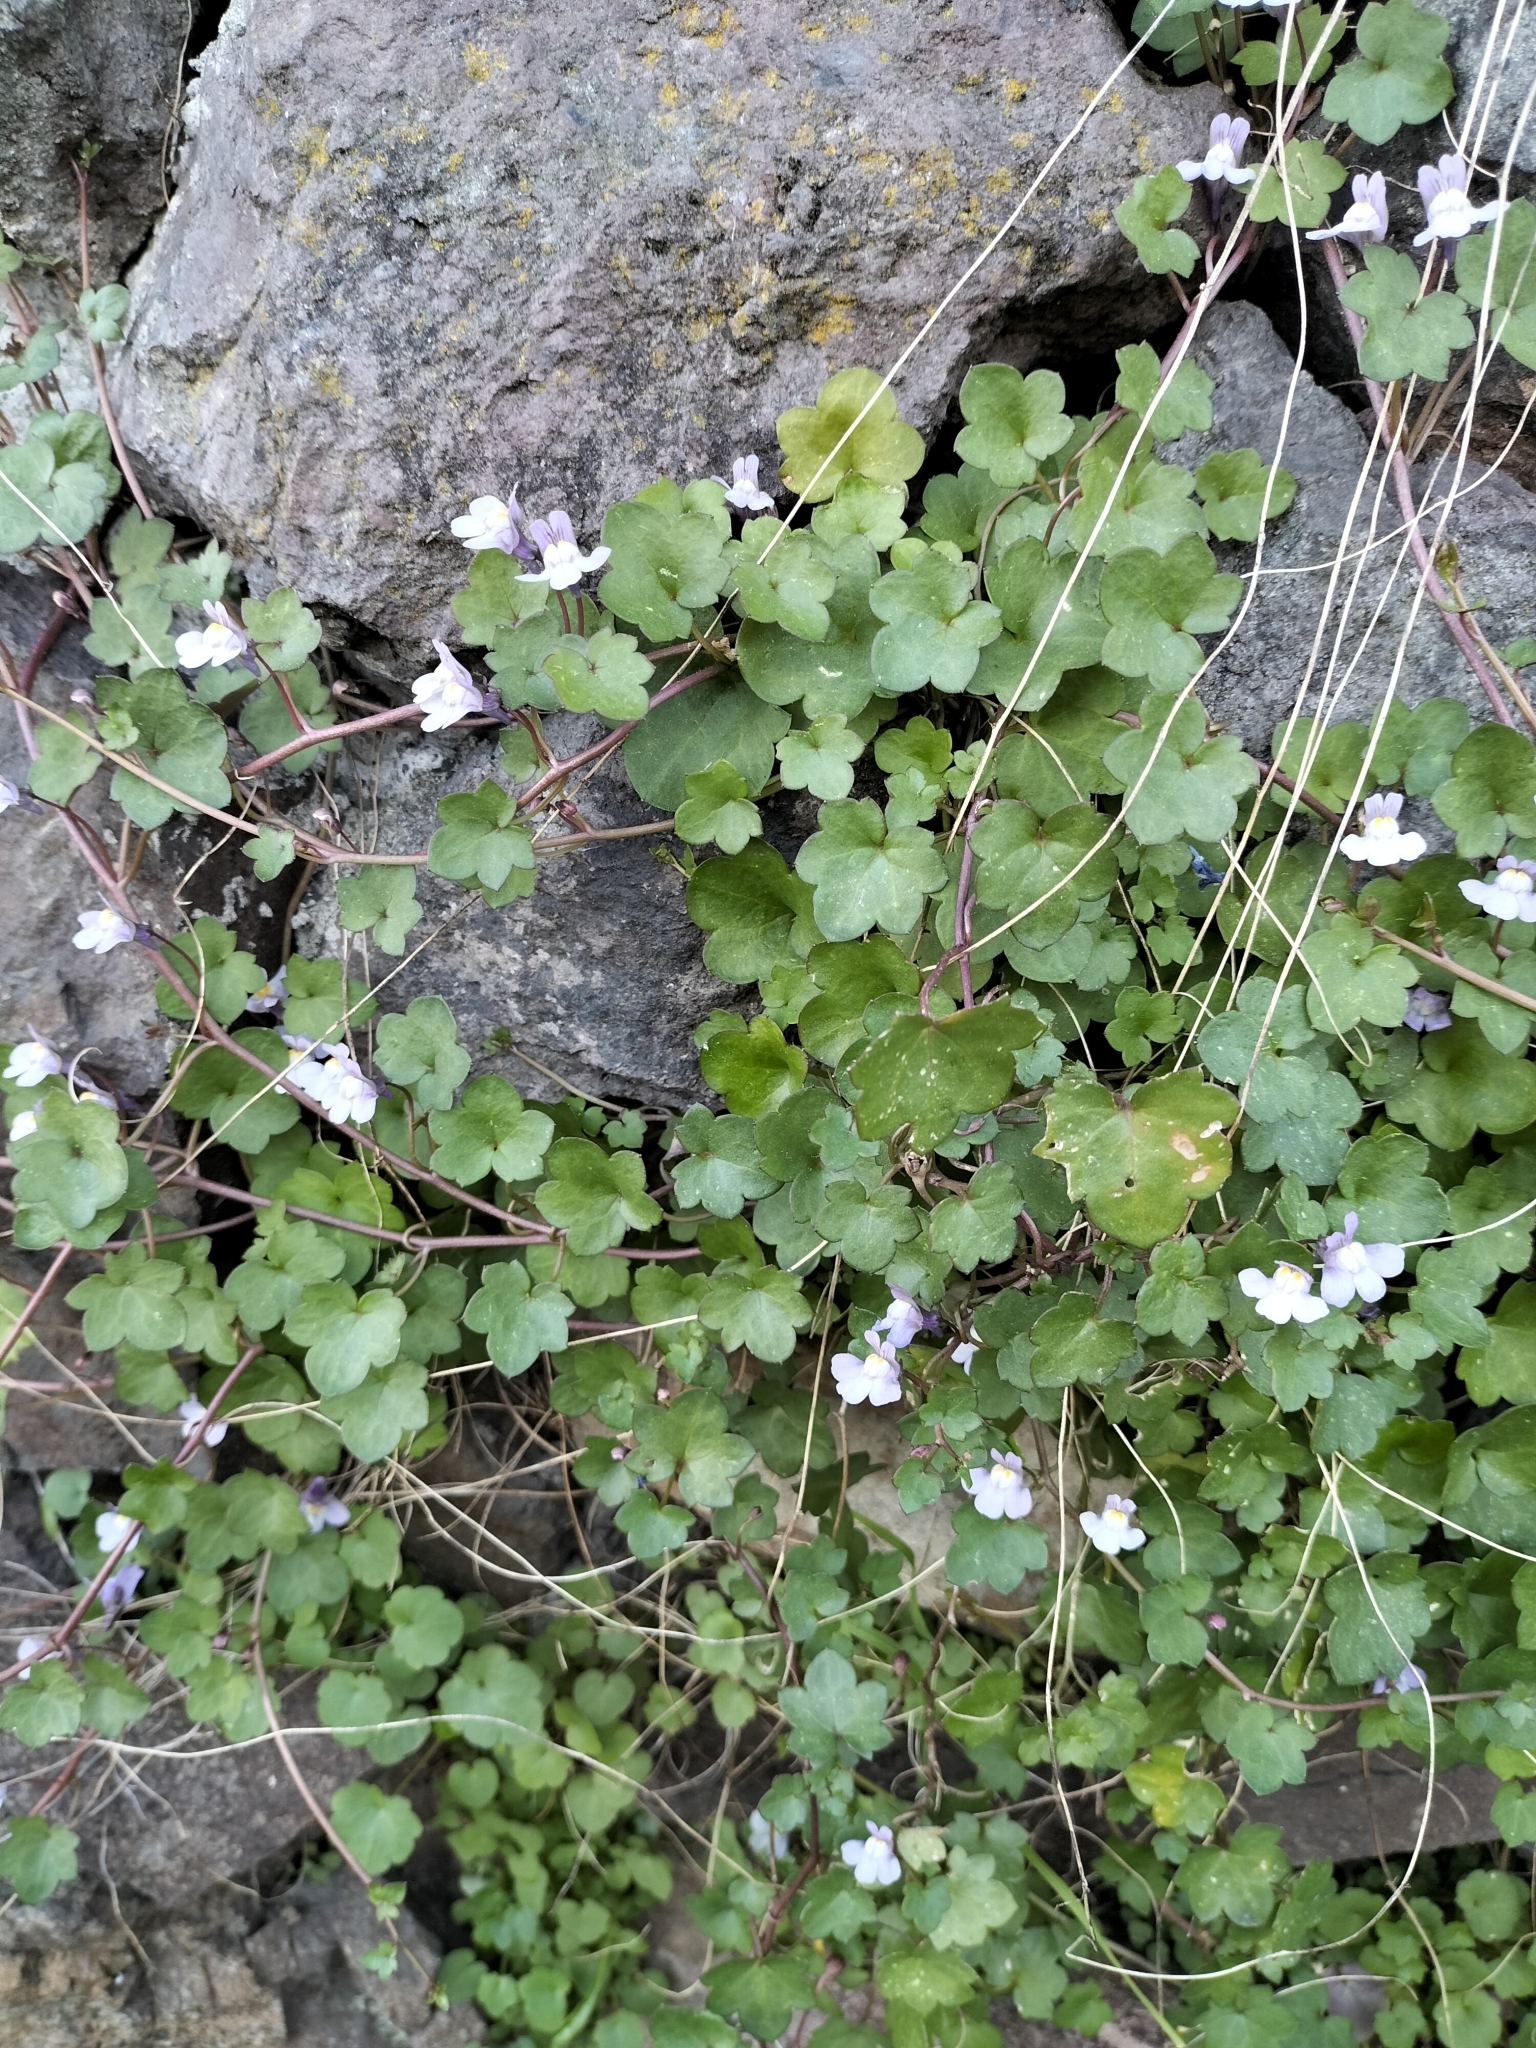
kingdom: Plantae
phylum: Tracheophyta
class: Magnoliopsida
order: Lamiales
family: Plantaginaceae
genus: Cymbalaria
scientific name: Cymbalaria muralis
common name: Ivy-leaved toadflax
